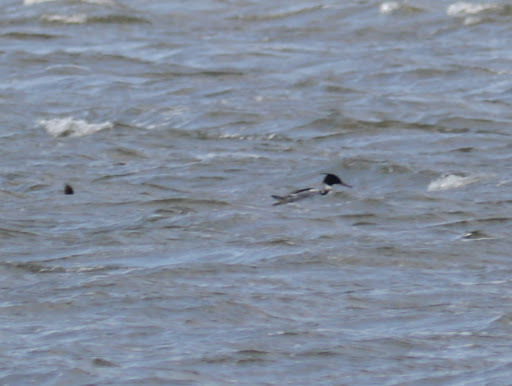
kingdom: Animalia
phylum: Chordata
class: Aves
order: Anseriformes
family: Anatidae
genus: Mergus
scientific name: Mergus serrator
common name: Red-breasted merganser
